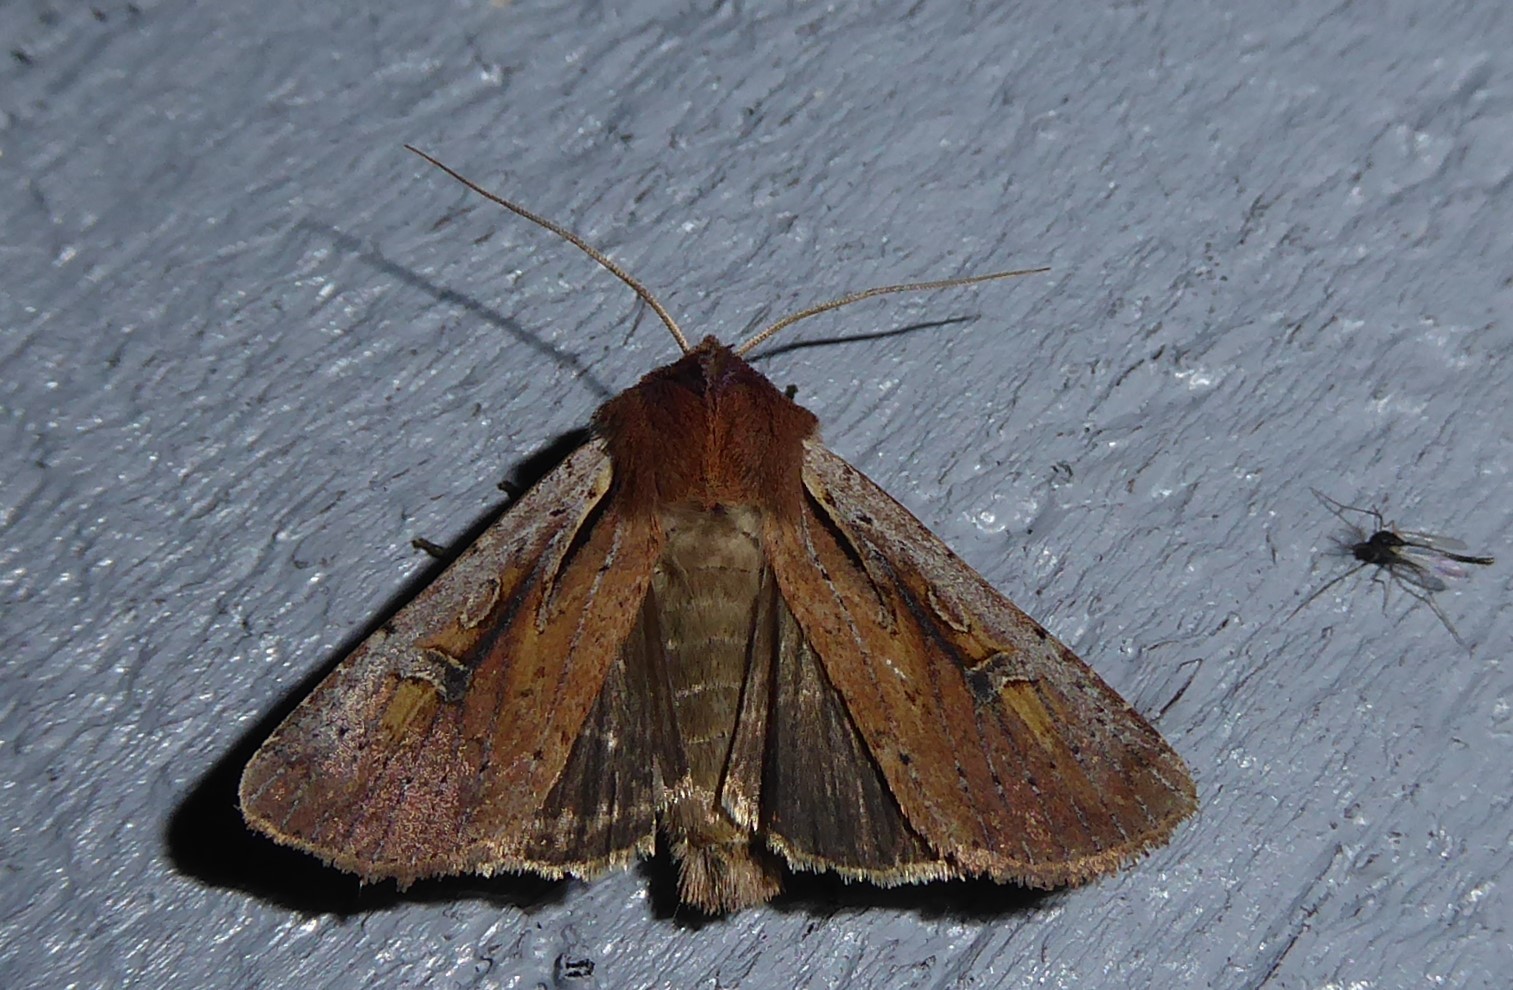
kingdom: Animalia
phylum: Arthropoda
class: Insecta
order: Lepidoptera
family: Noctuidae
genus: Ichneutica
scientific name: Ichneutica atristriga
